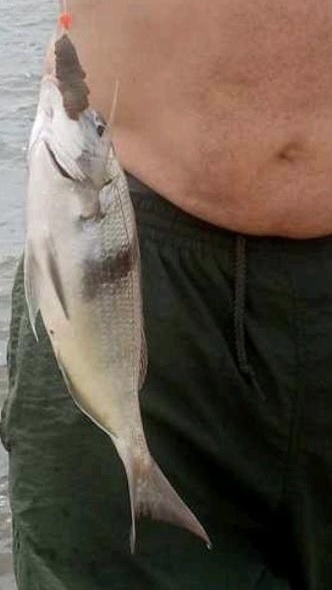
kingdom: Animalia
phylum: Chordata
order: Perciformes
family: Sparidae
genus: Stenotomus
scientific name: Stenotomus chrysops
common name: Scup
